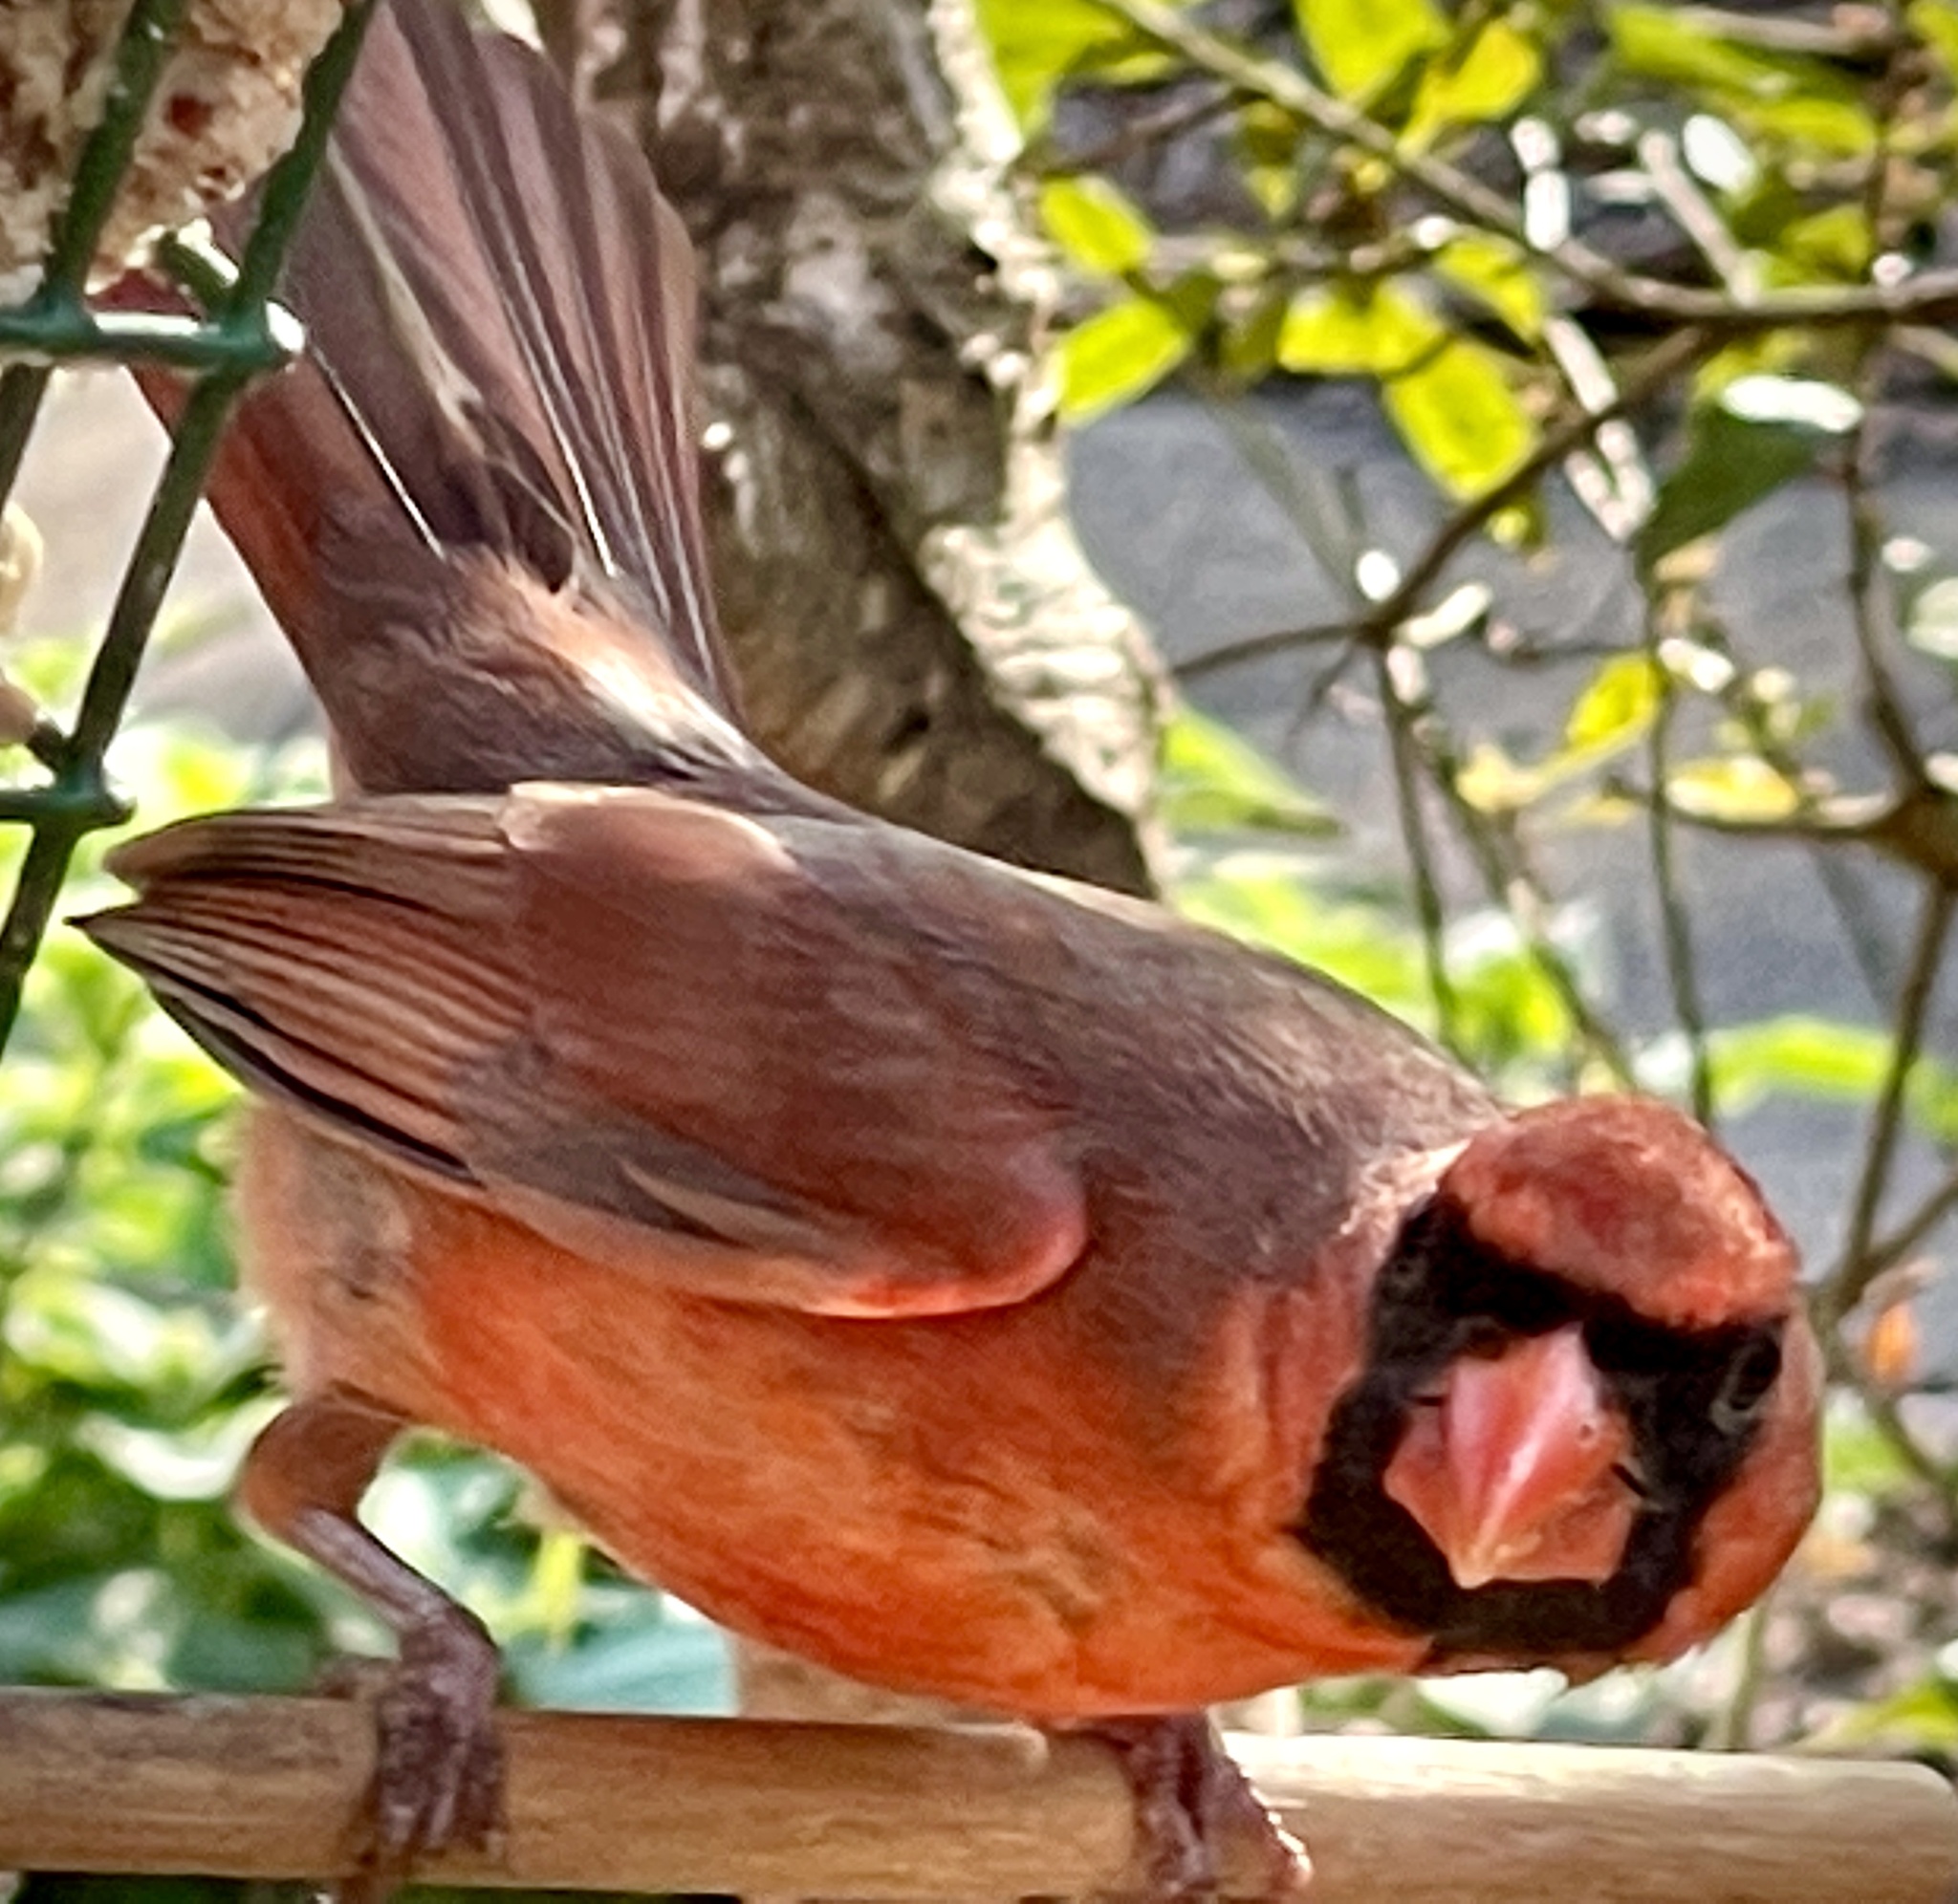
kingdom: Animalia
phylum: Chordata
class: Aves
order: Passeriformes
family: Cardinalidae
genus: Cardinalis
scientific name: Cardinalis cardinalis
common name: Northern cardinal
